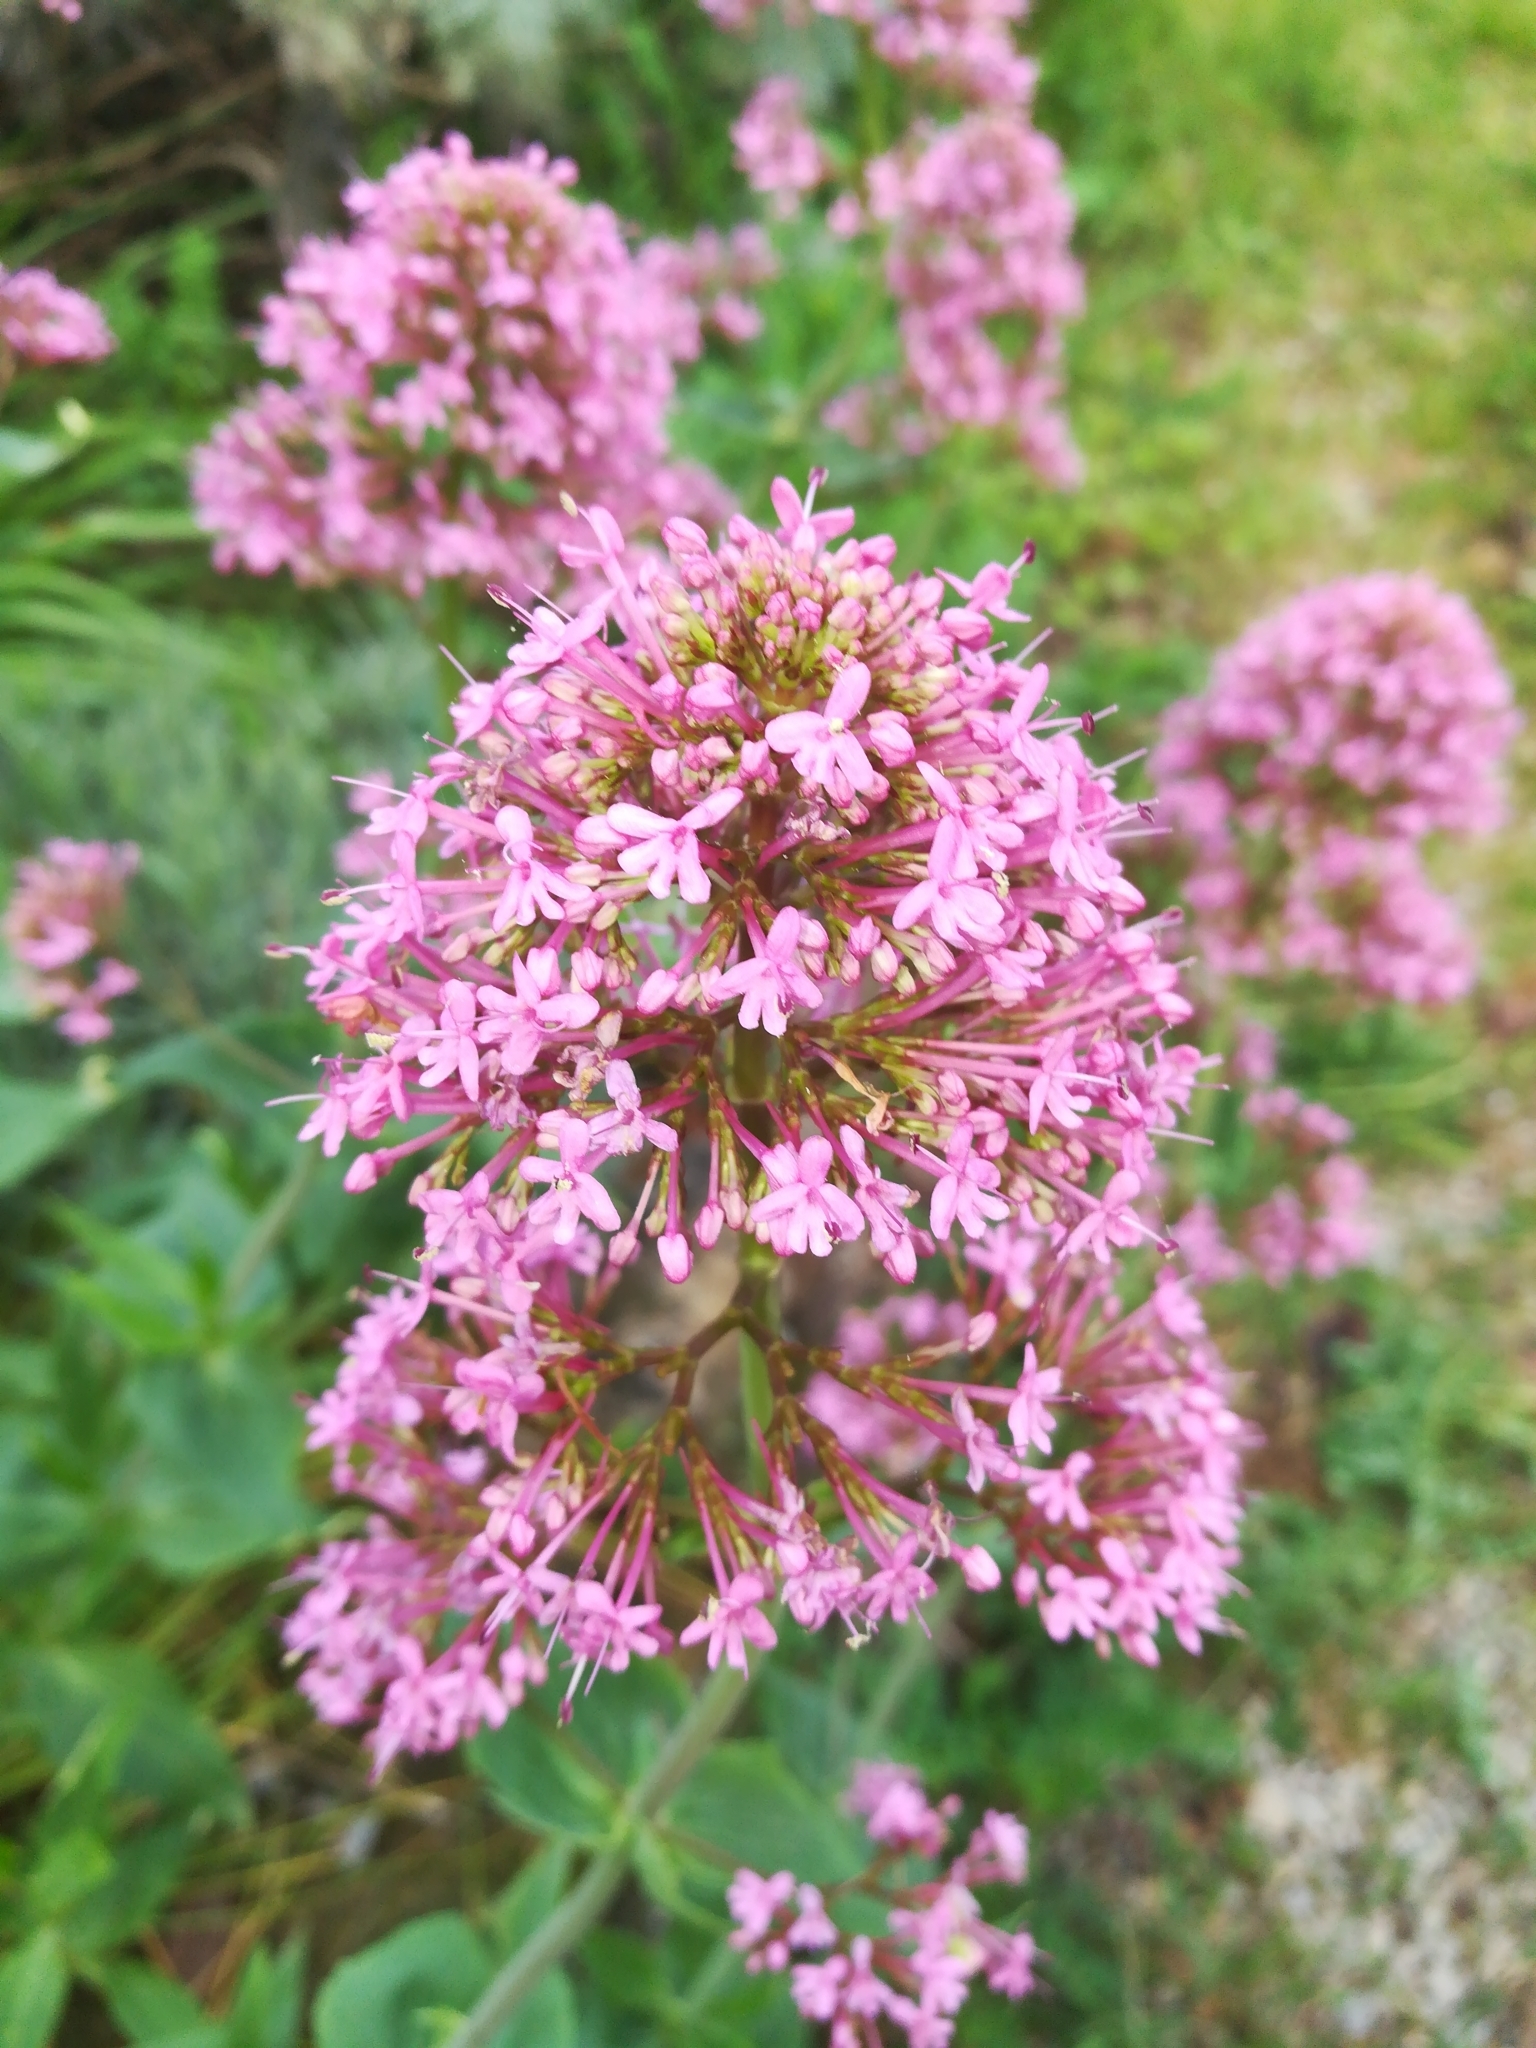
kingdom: Plantae
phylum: Tracheophyta
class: Magnoliopsida
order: Dipsacales
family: Caprifoliaceae
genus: Centranthus
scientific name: Centranthus ruber
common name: Red valerian
